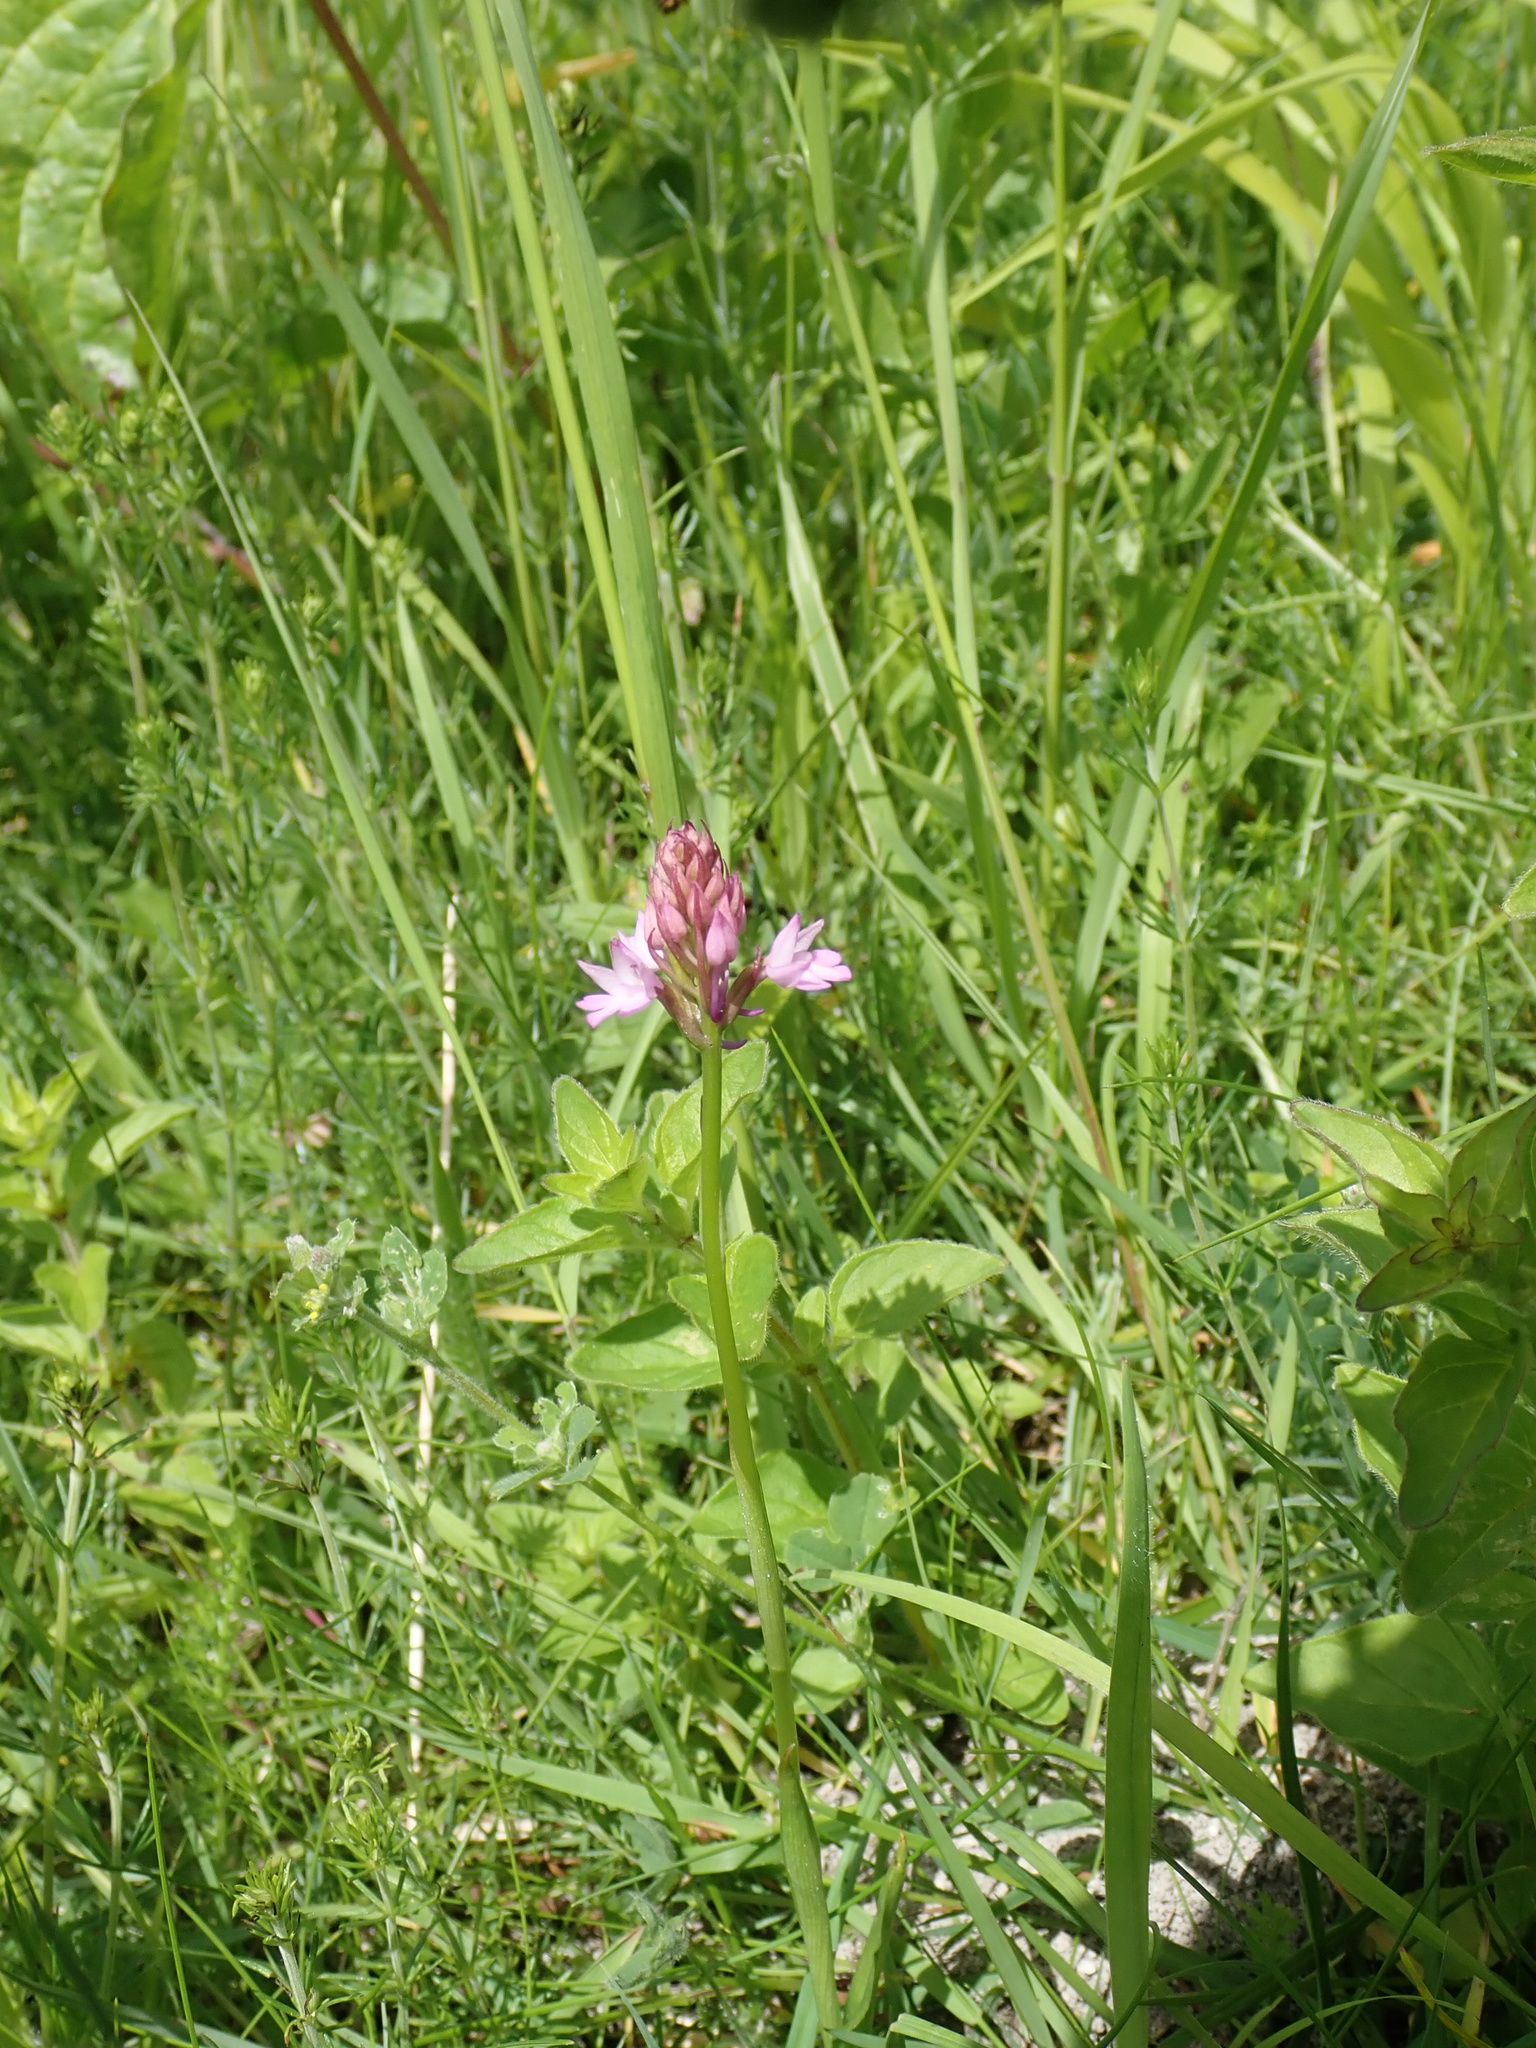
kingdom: Plantae
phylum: Tracheophyta
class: Liliopsida
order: Asparagales
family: Orchidaceae
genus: Anacamptis
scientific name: Anacamptis pyramidalis
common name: Pyramidal orchid
